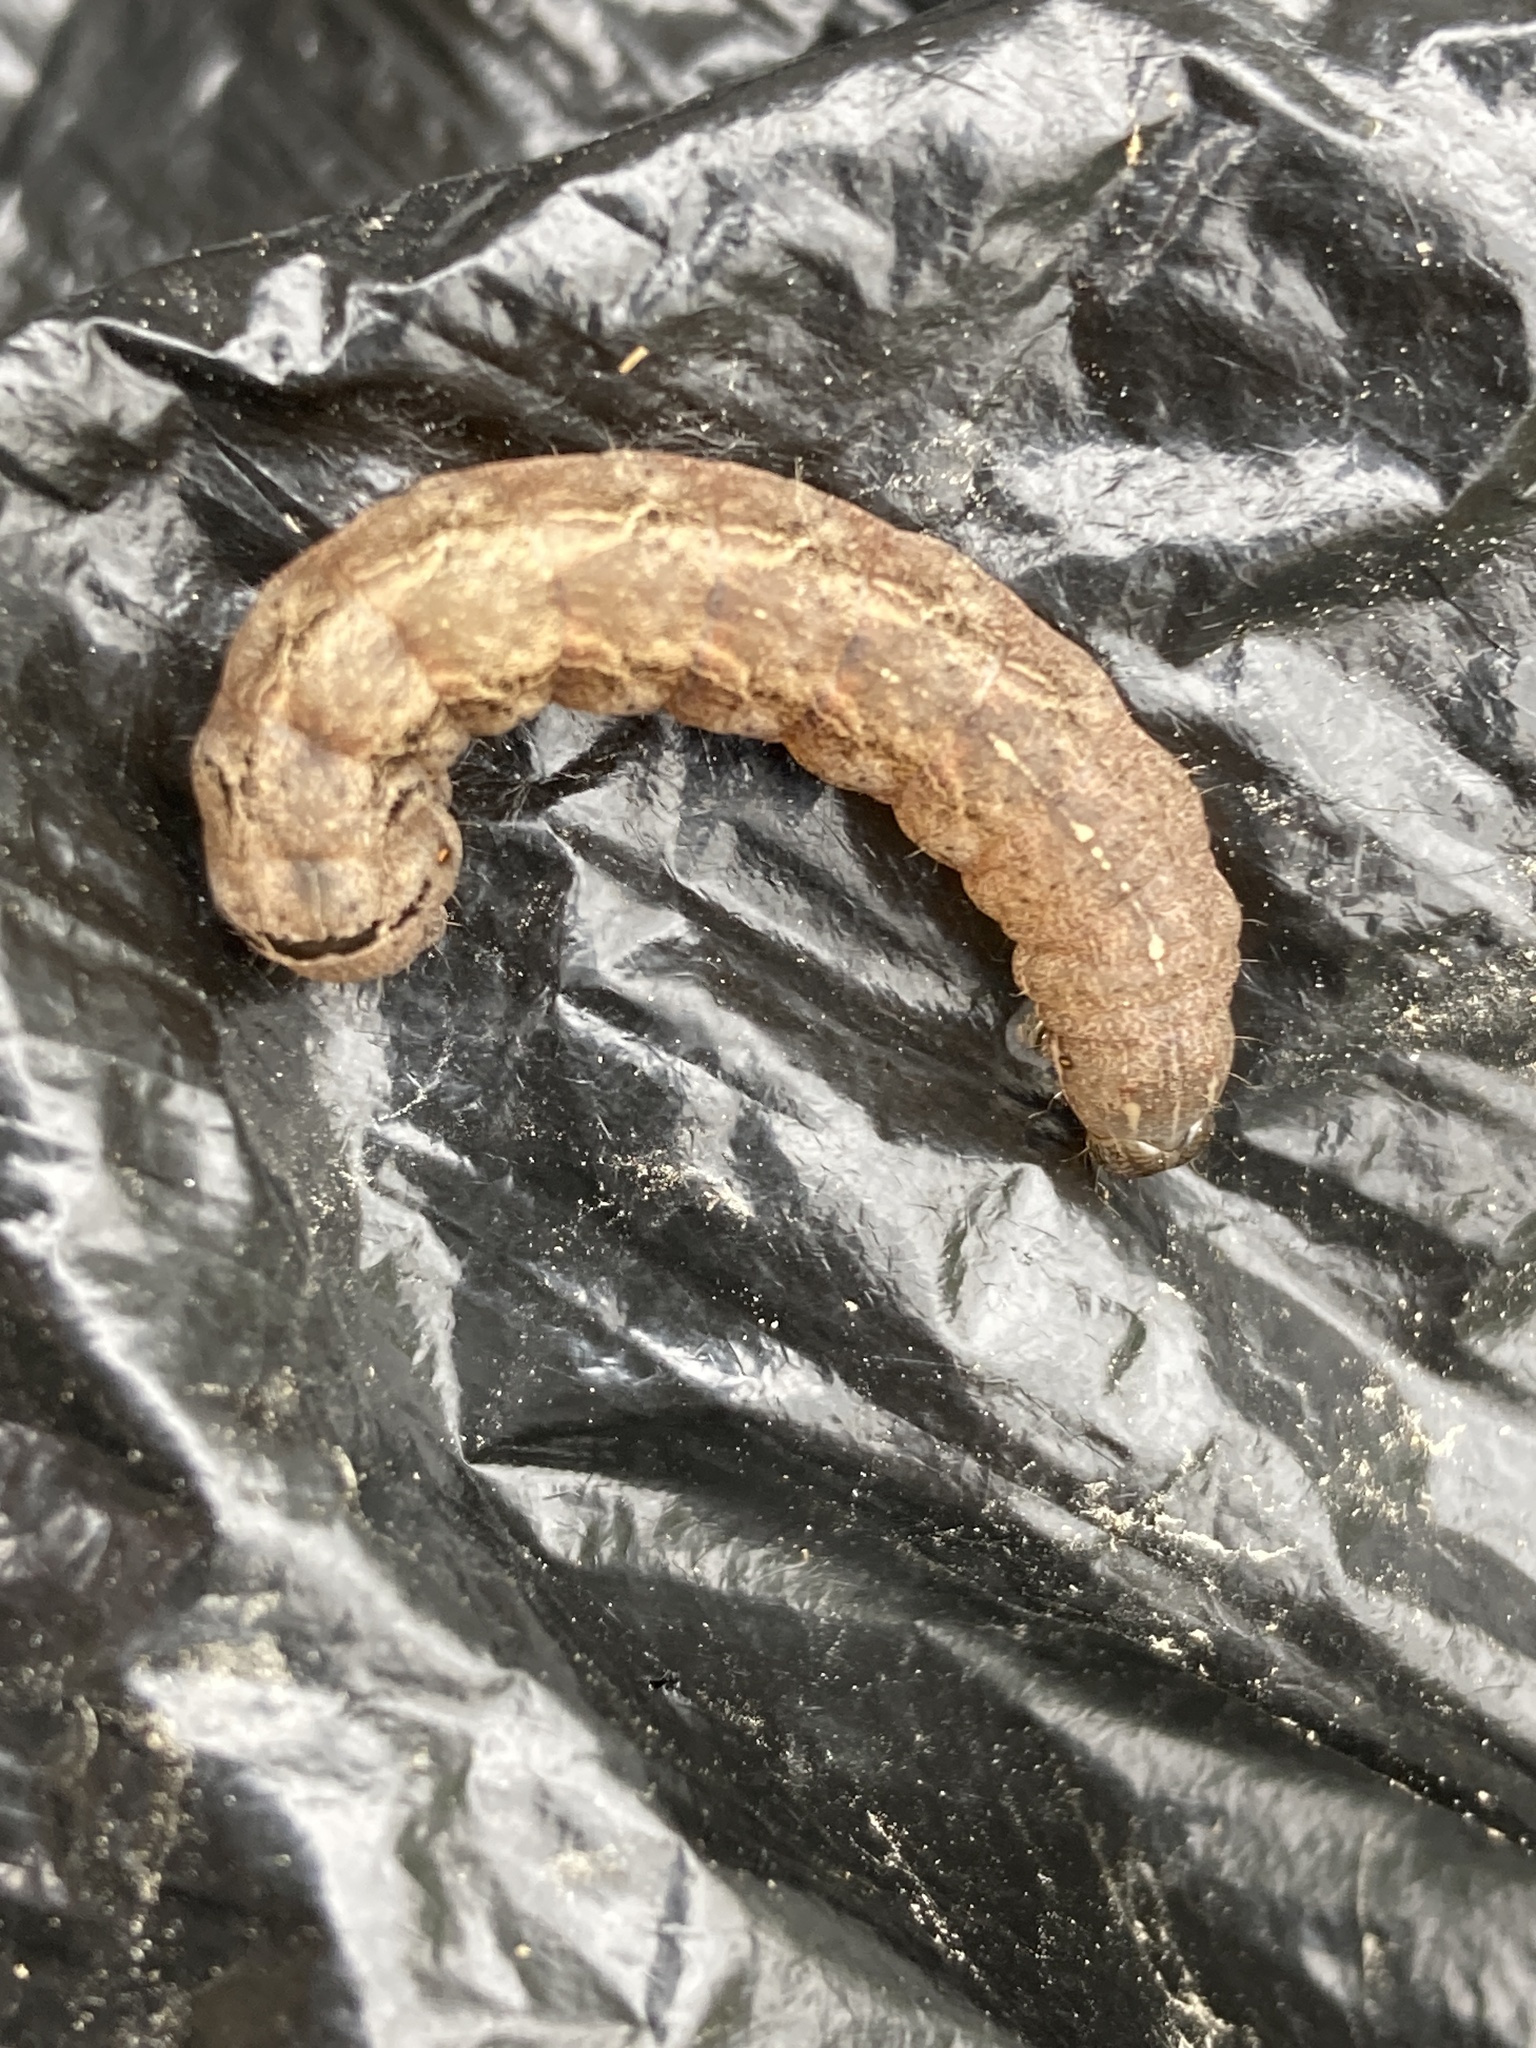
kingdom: Animalia
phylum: Arthropoda
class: Insecta
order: Lepidoptera
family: Noctuidae
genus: Mormo
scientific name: Mormo maura
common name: Old lady
